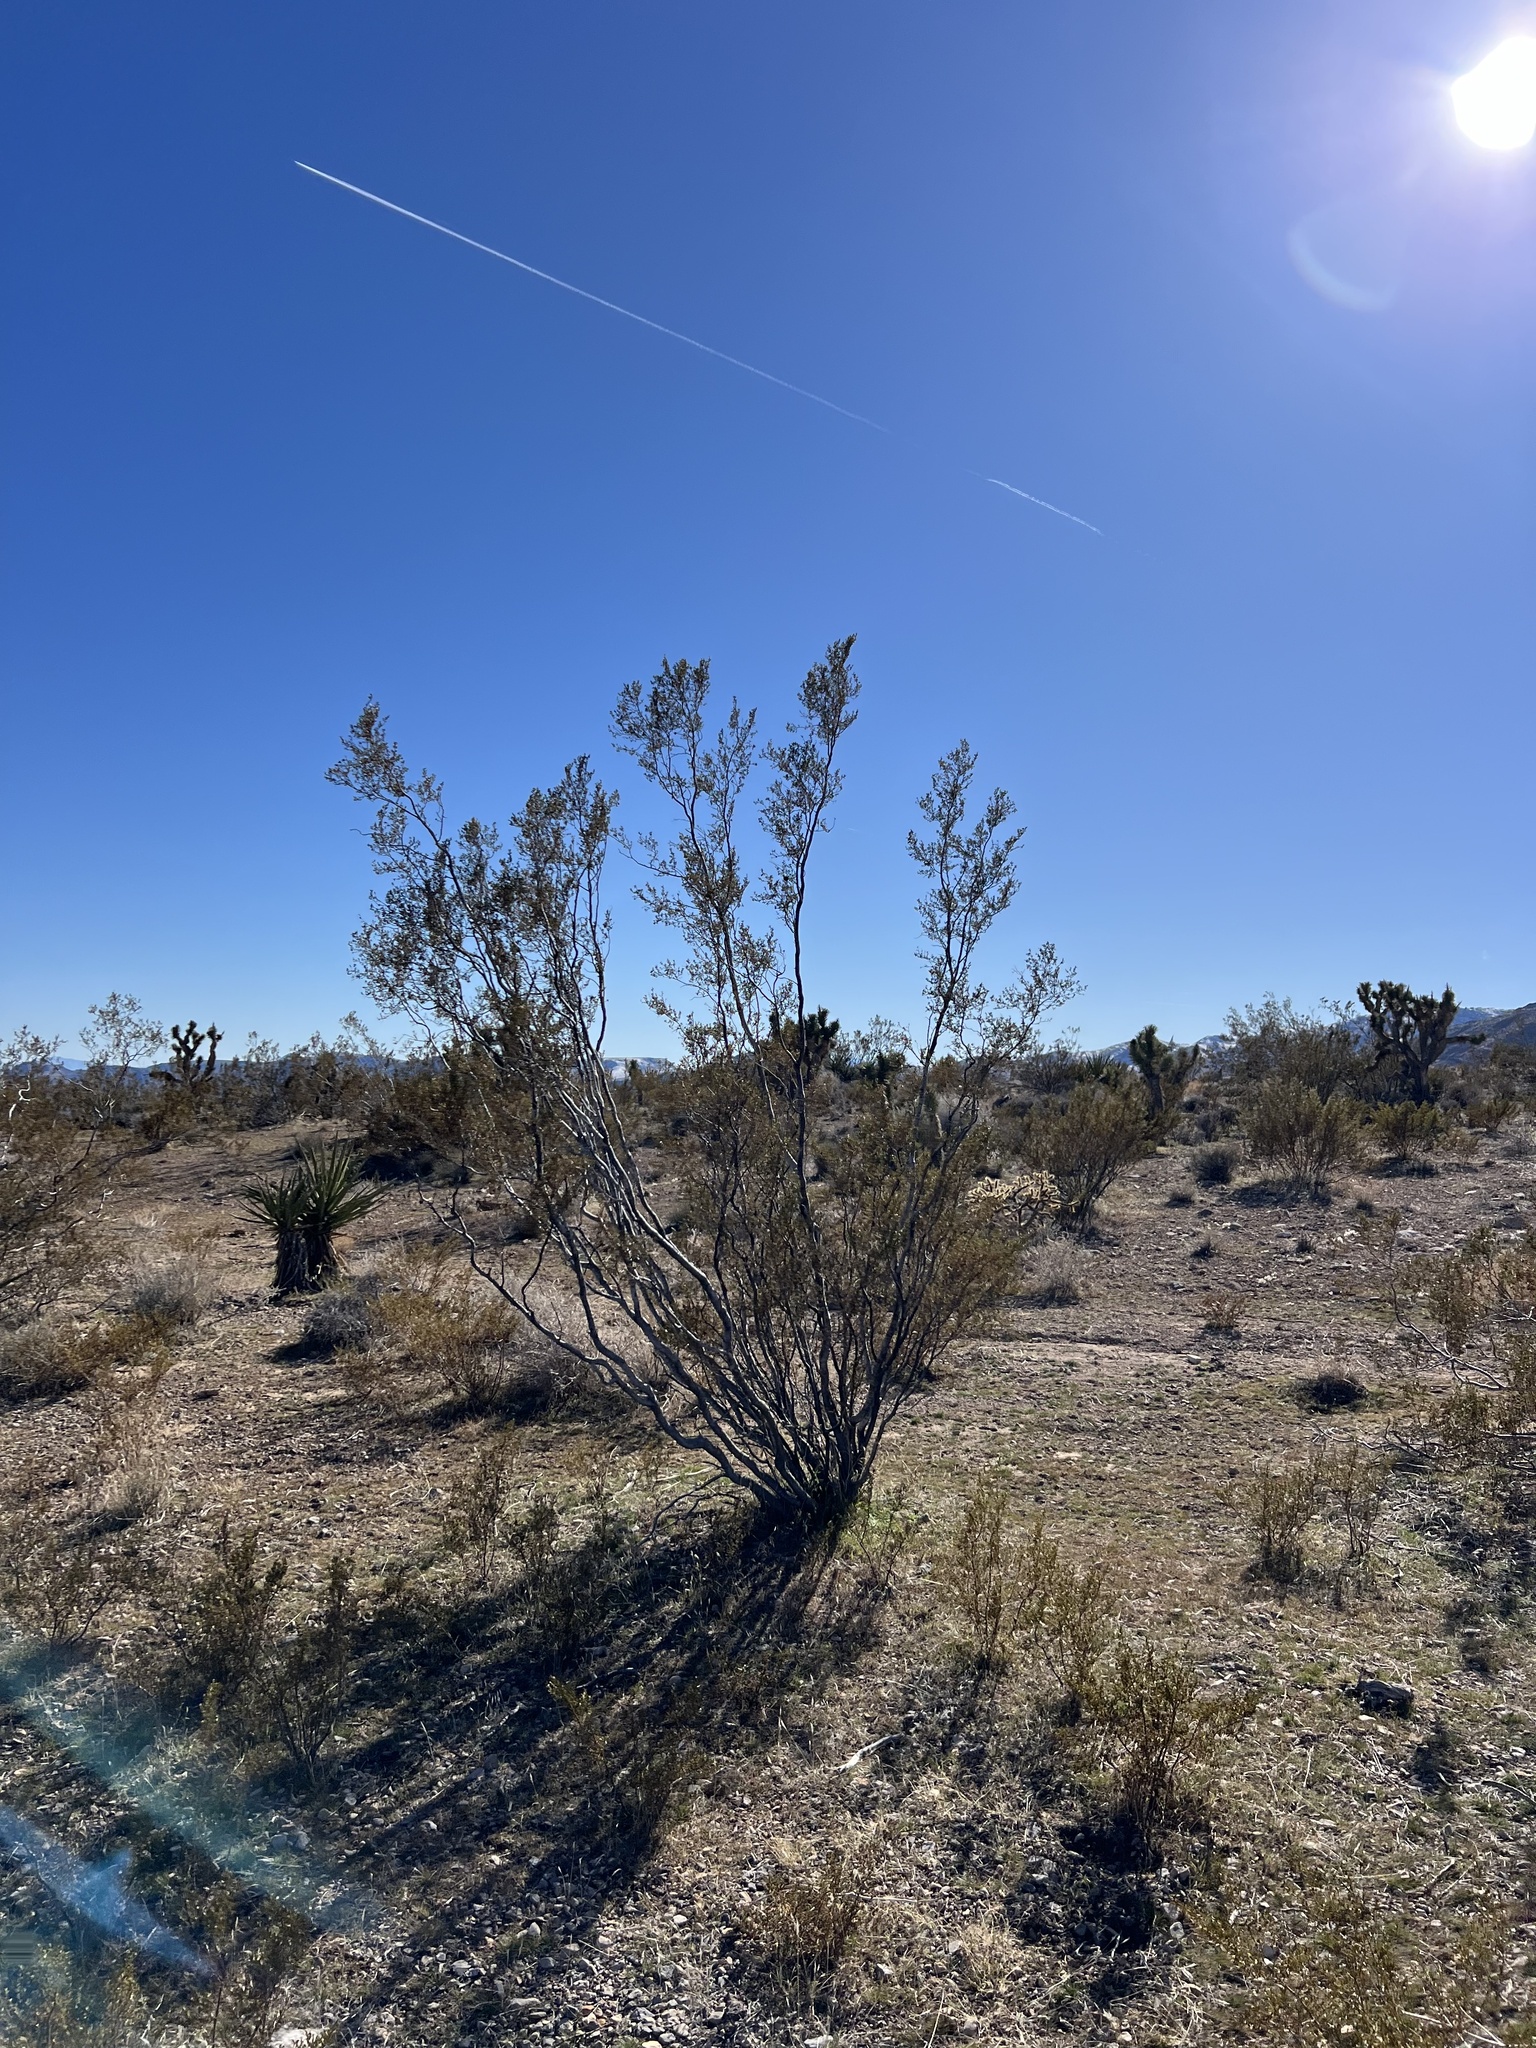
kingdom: Plantae
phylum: Tracheophyta
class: Magnoliopsida
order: Zygophyllales
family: Zygophyllaceae
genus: Larrea
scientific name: Larrea tridentata
